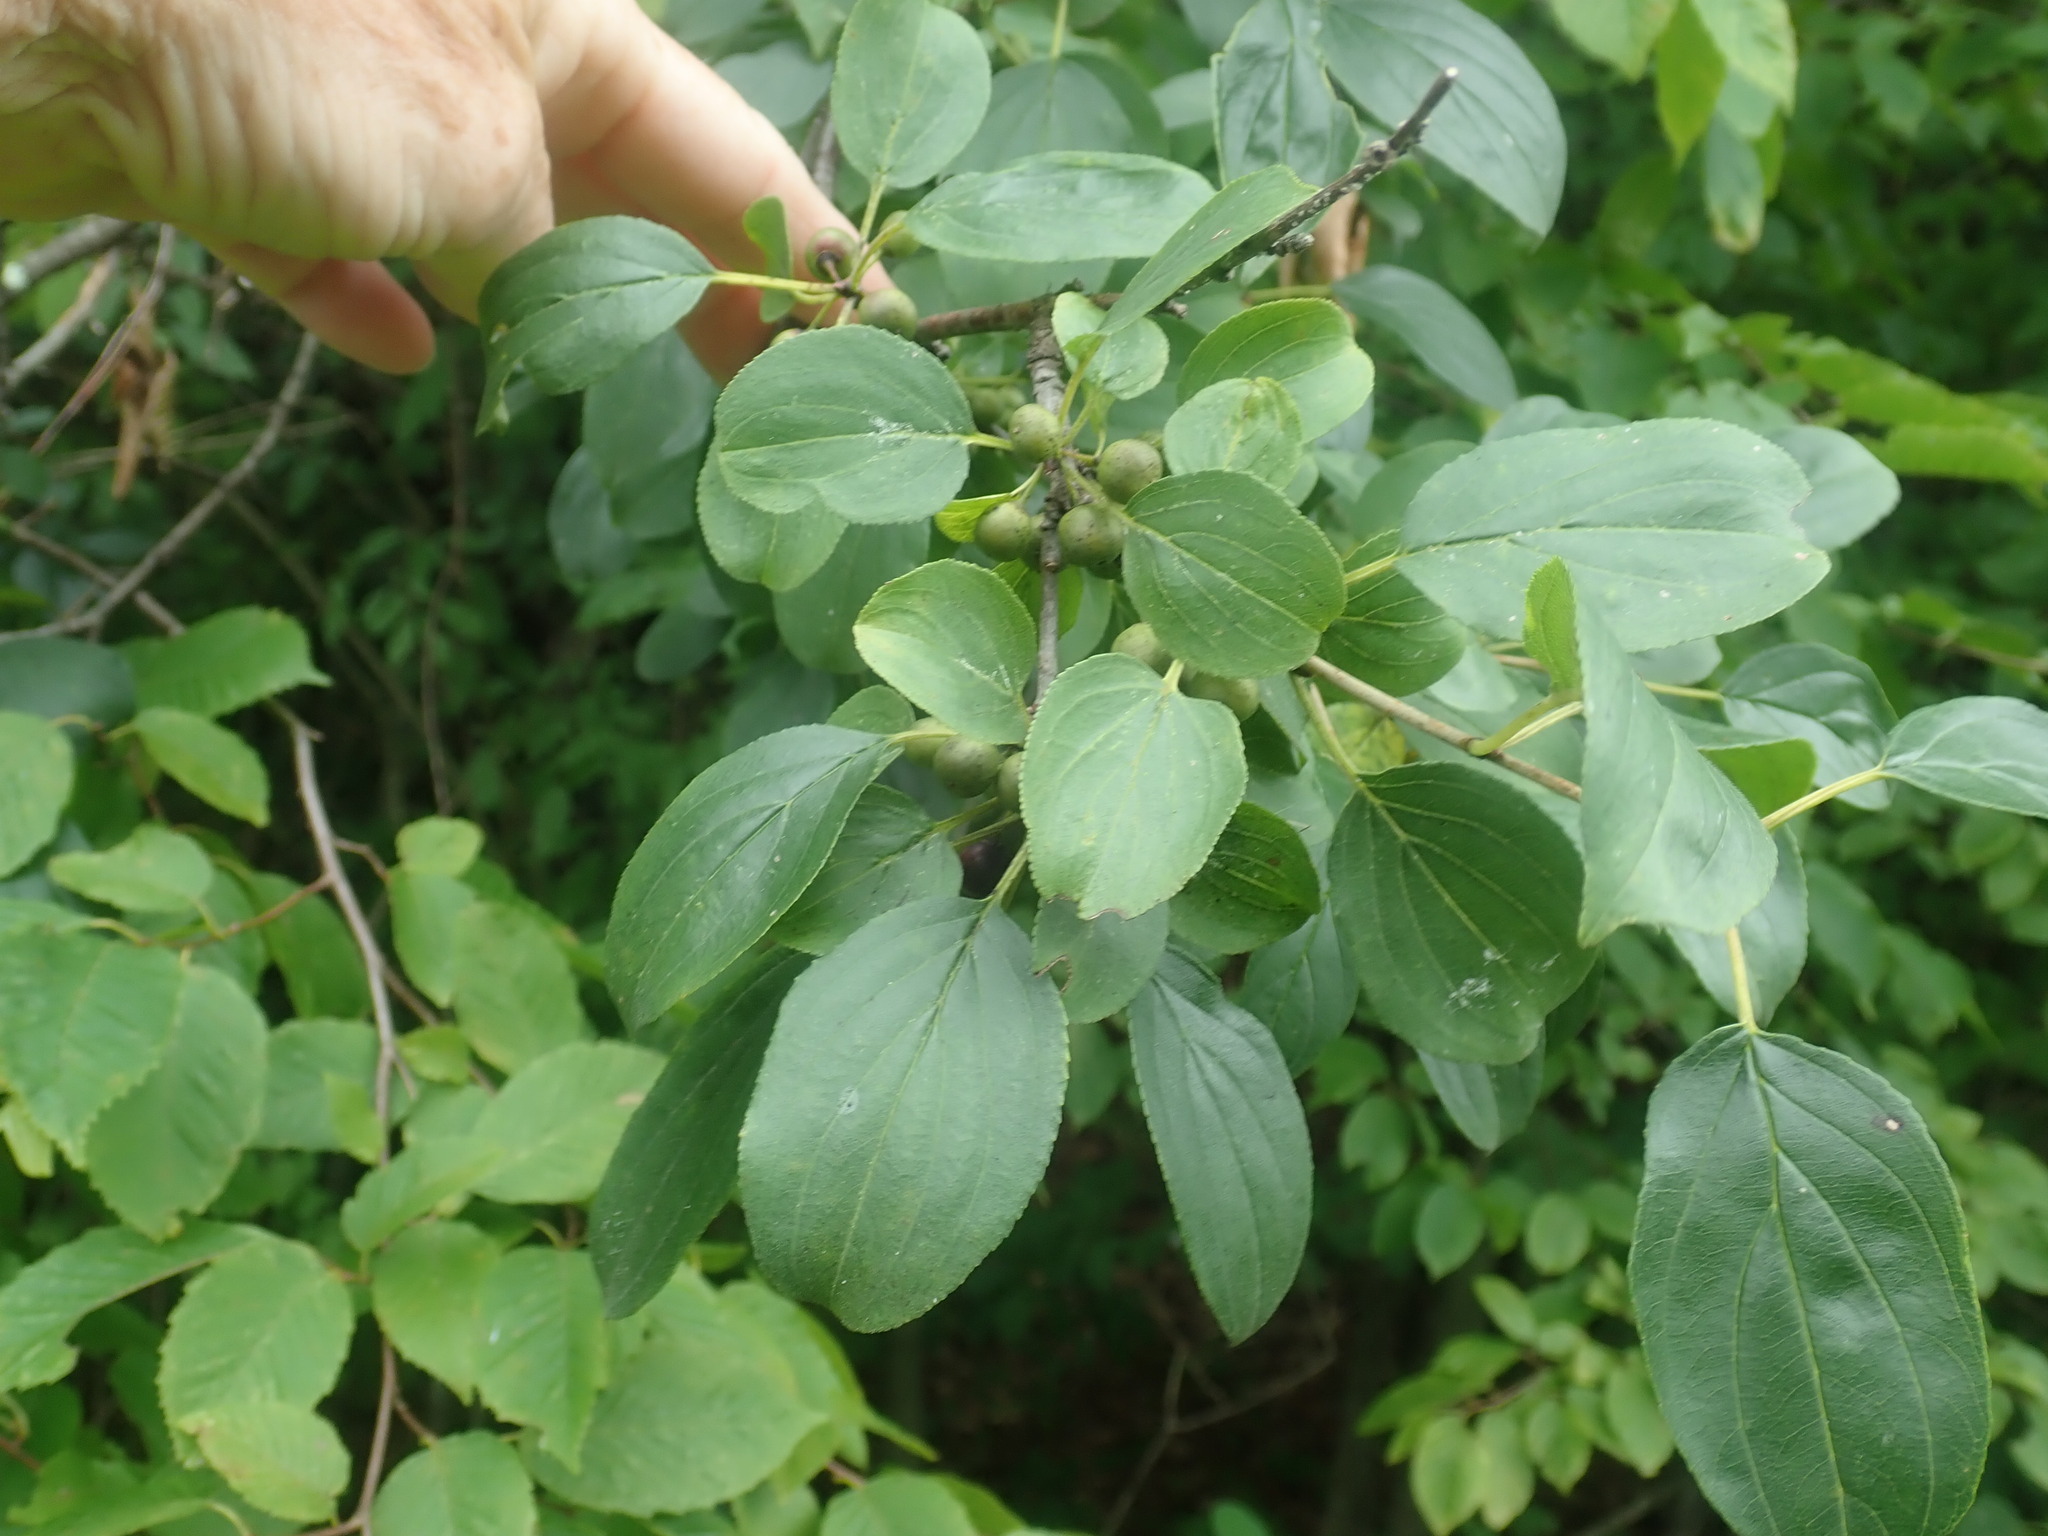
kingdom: Plantae
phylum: Tracheophyta
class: Magnoliopsida
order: Rosales
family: Rhamnaceae
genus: Rhamnus
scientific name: Rhamnus cathartica
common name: Common buckthorn
